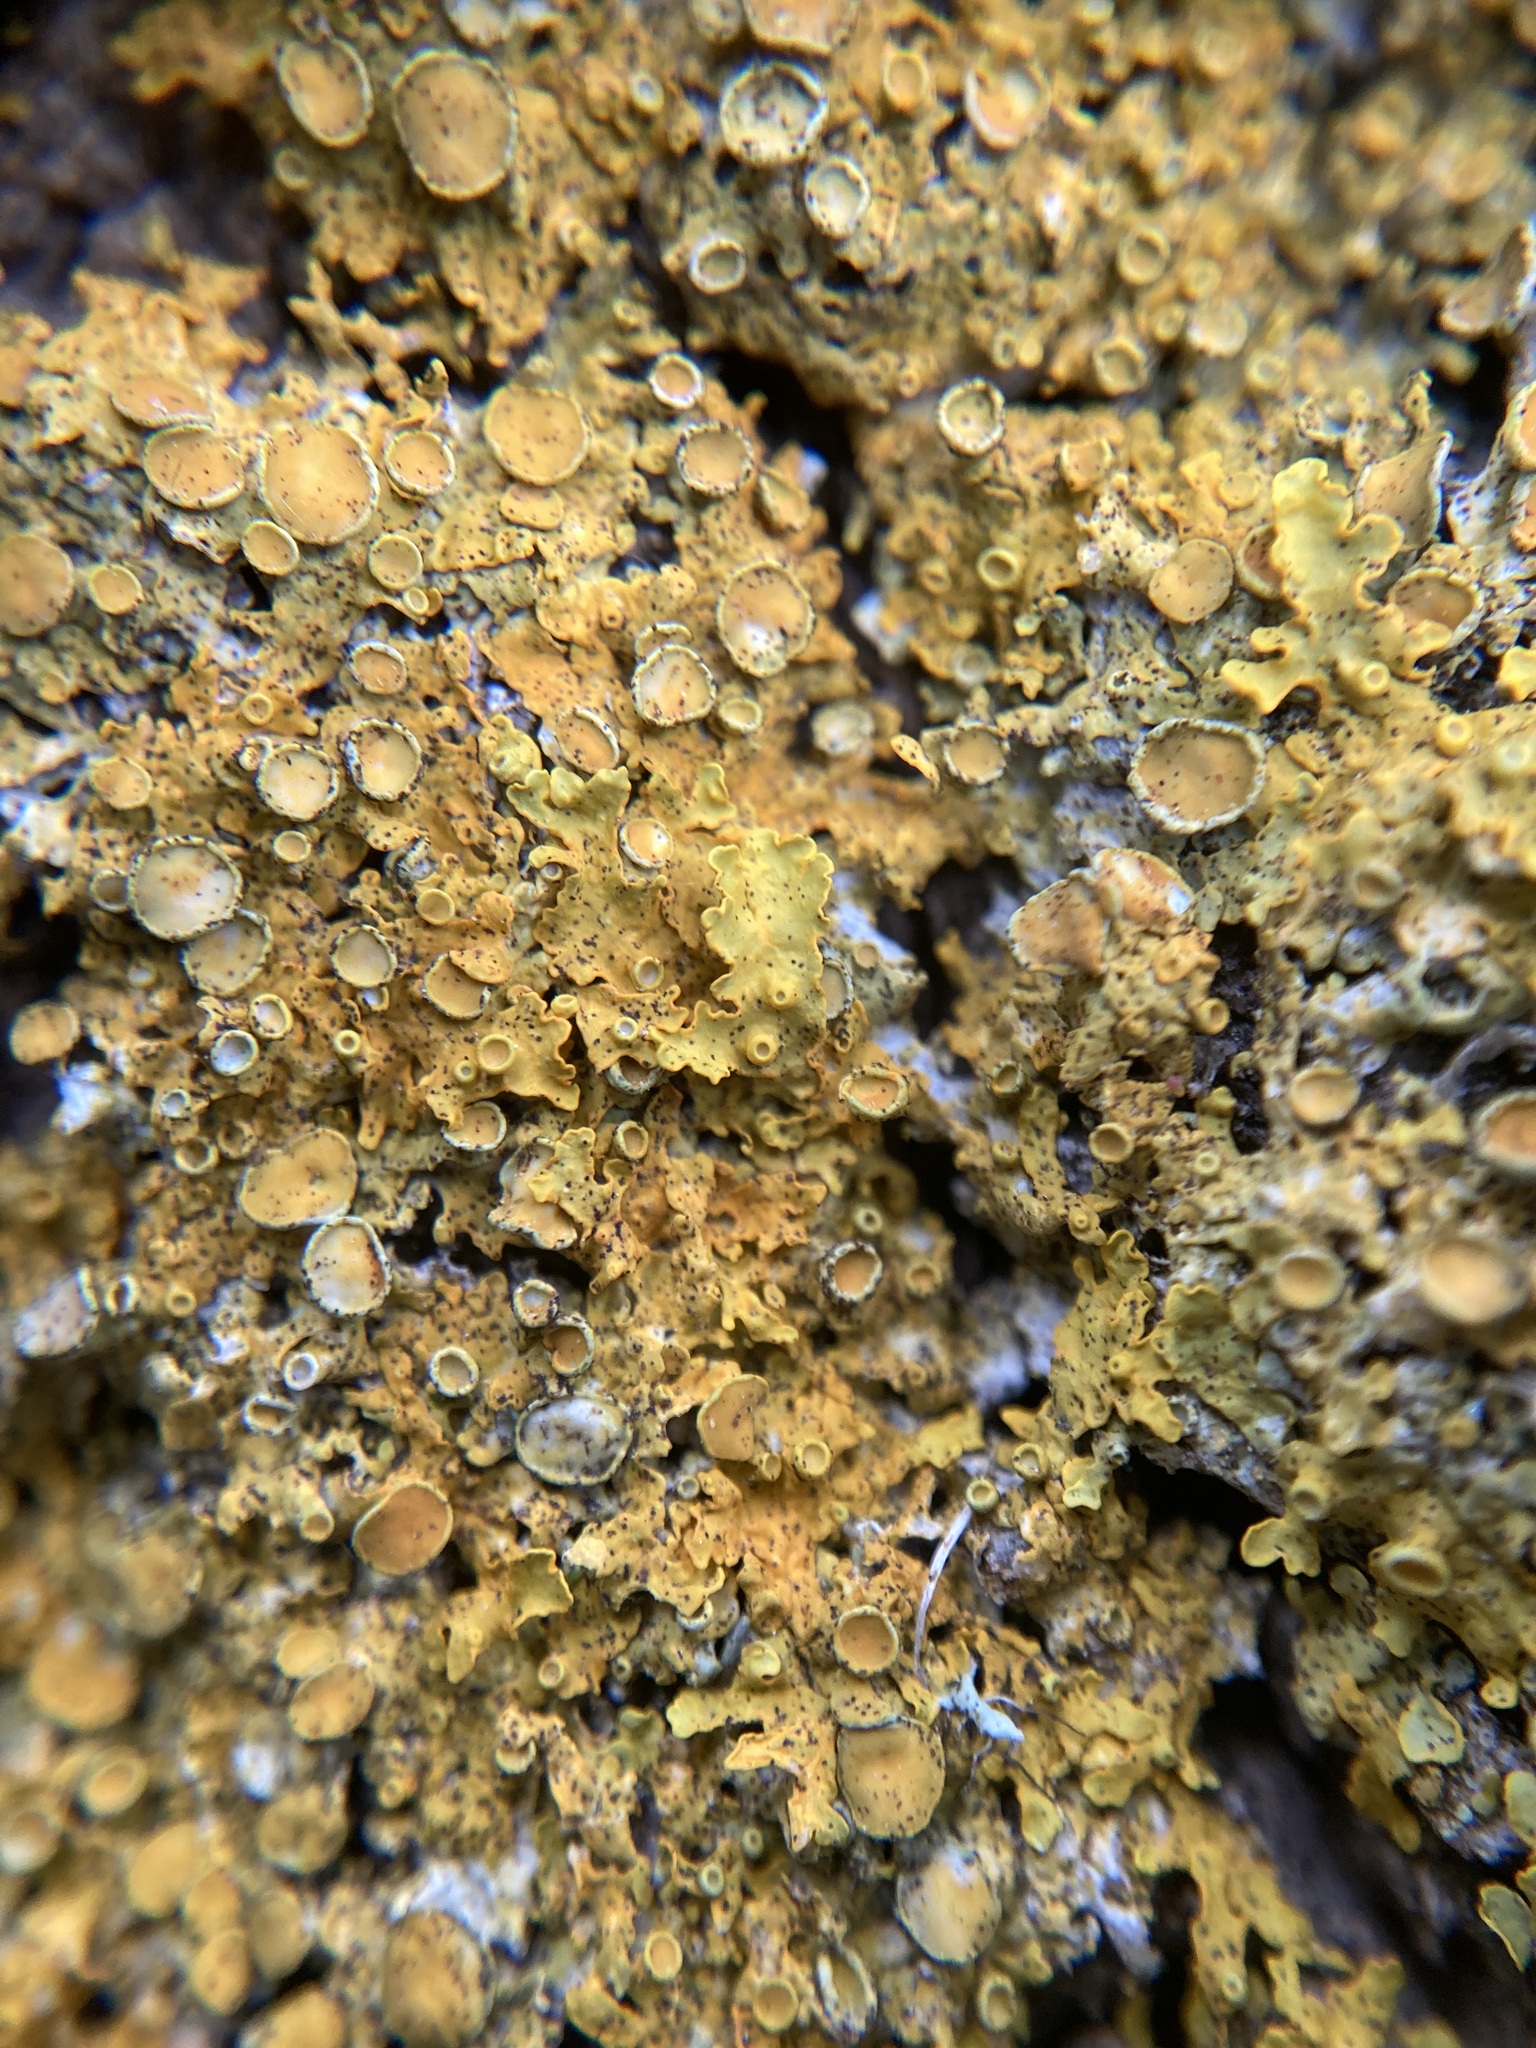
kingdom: Fungi
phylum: Ascomycota
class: Lecanoromycetes
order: Teloschistales
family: Teloschistaceae
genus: Xanthoria
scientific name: Xanthoria parietina
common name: Common orange lichen
